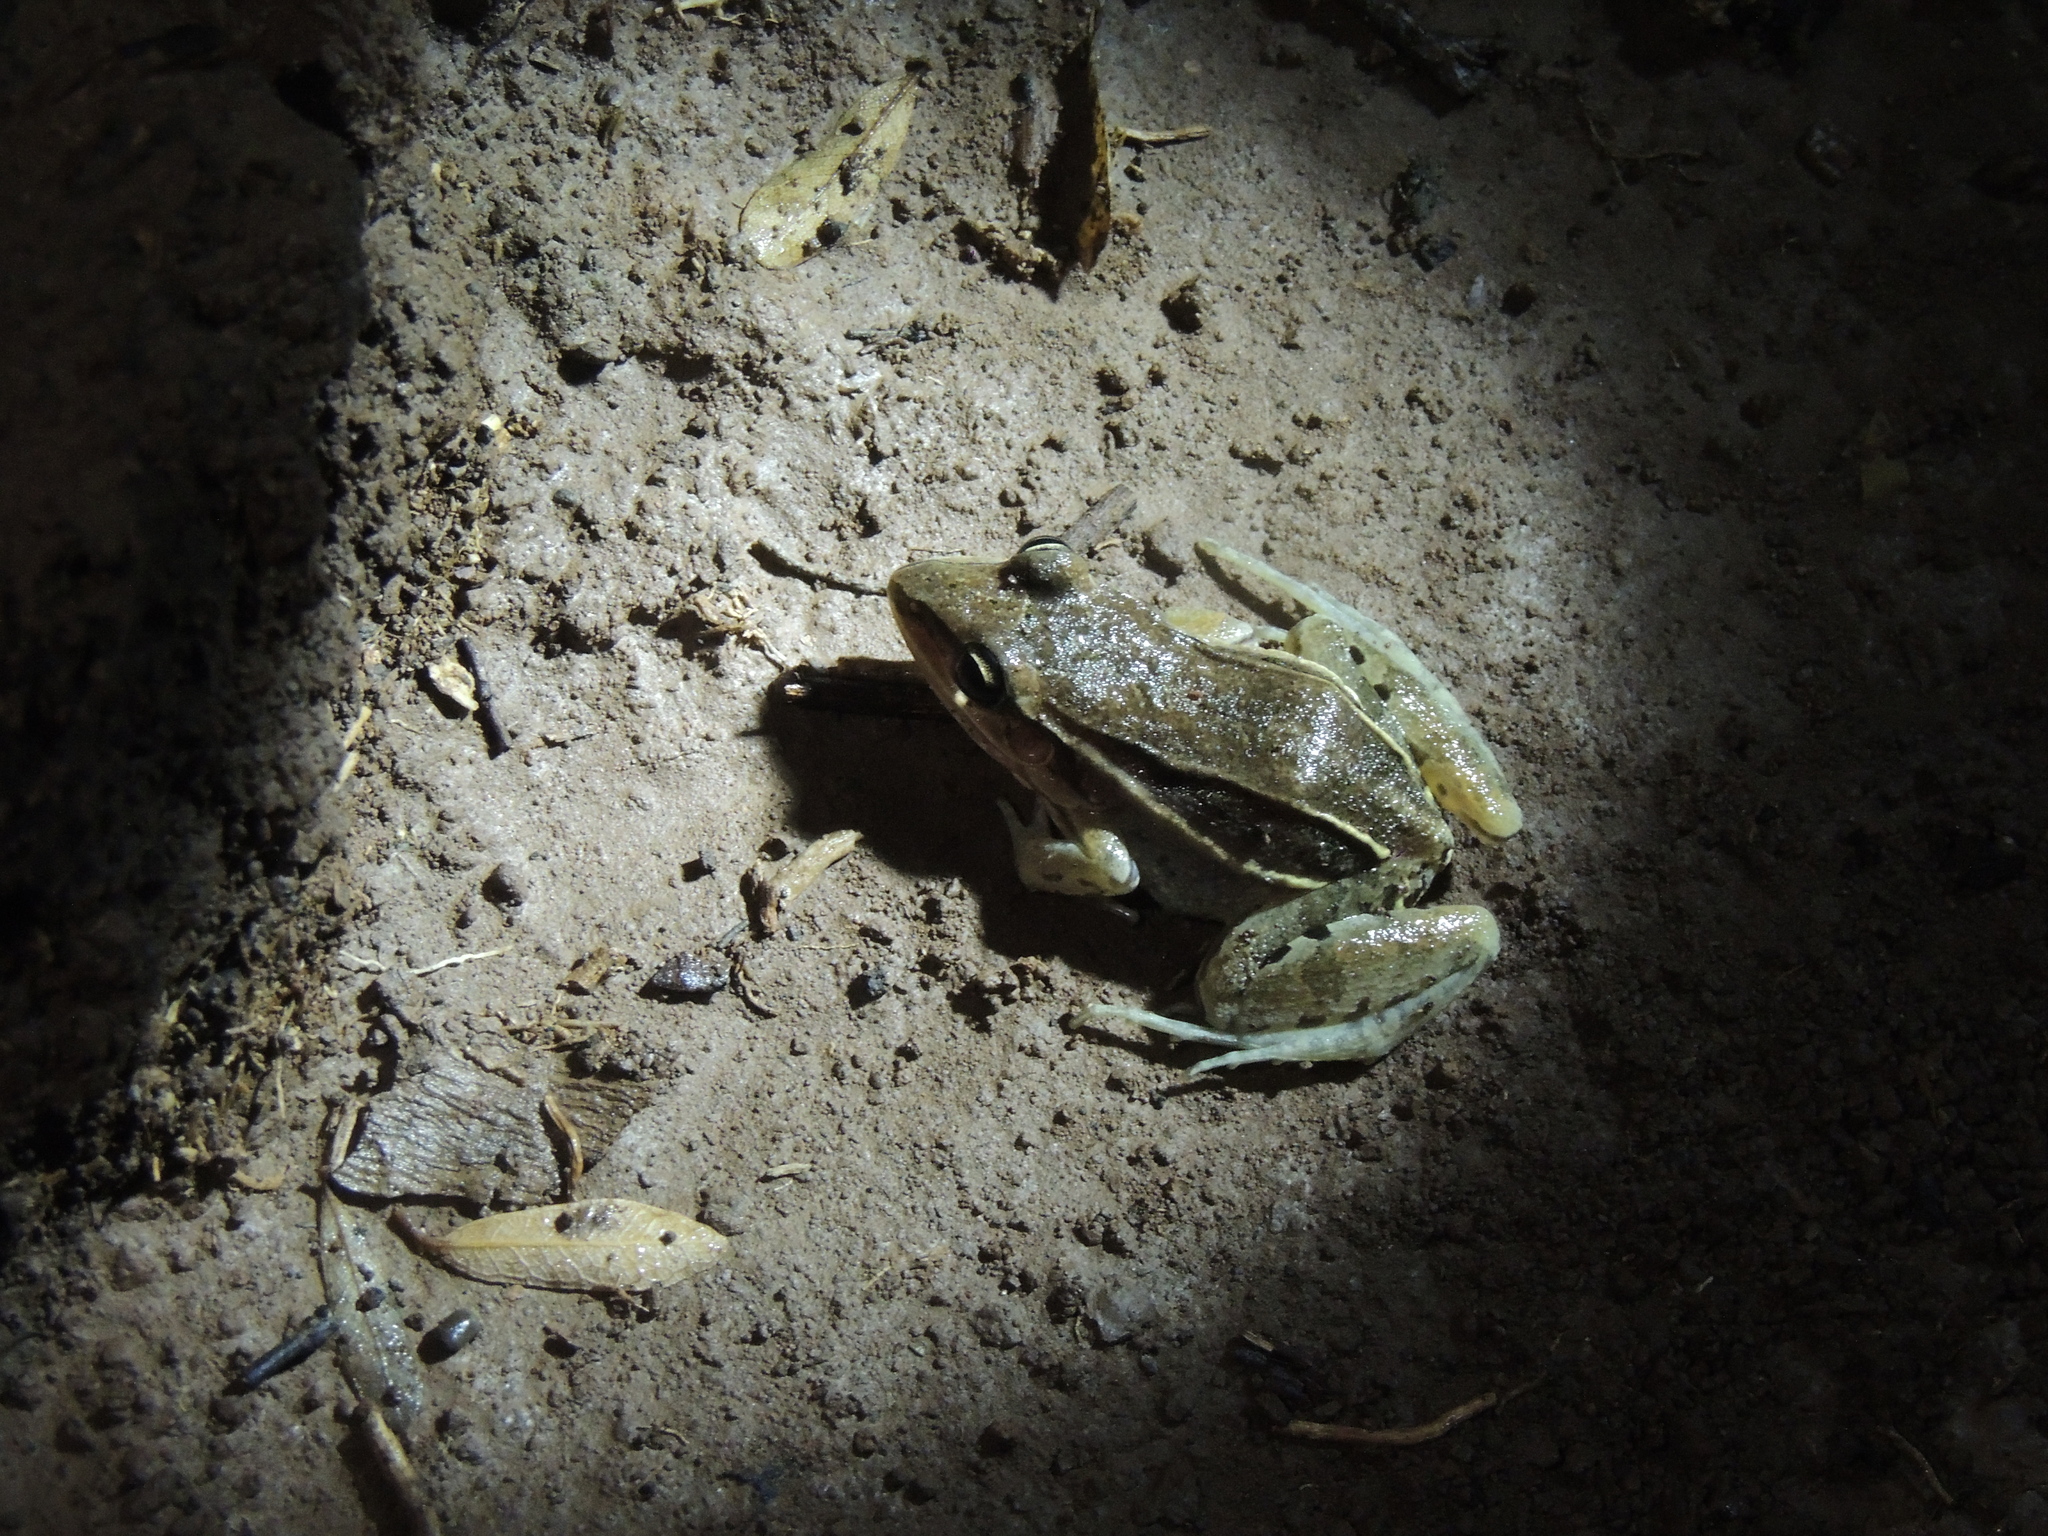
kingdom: Animalia
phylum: Chordata
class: Amphibia
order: Anura
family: Leptodactylidae
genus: Leptodactylus
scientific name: Leptodactylus elenae
